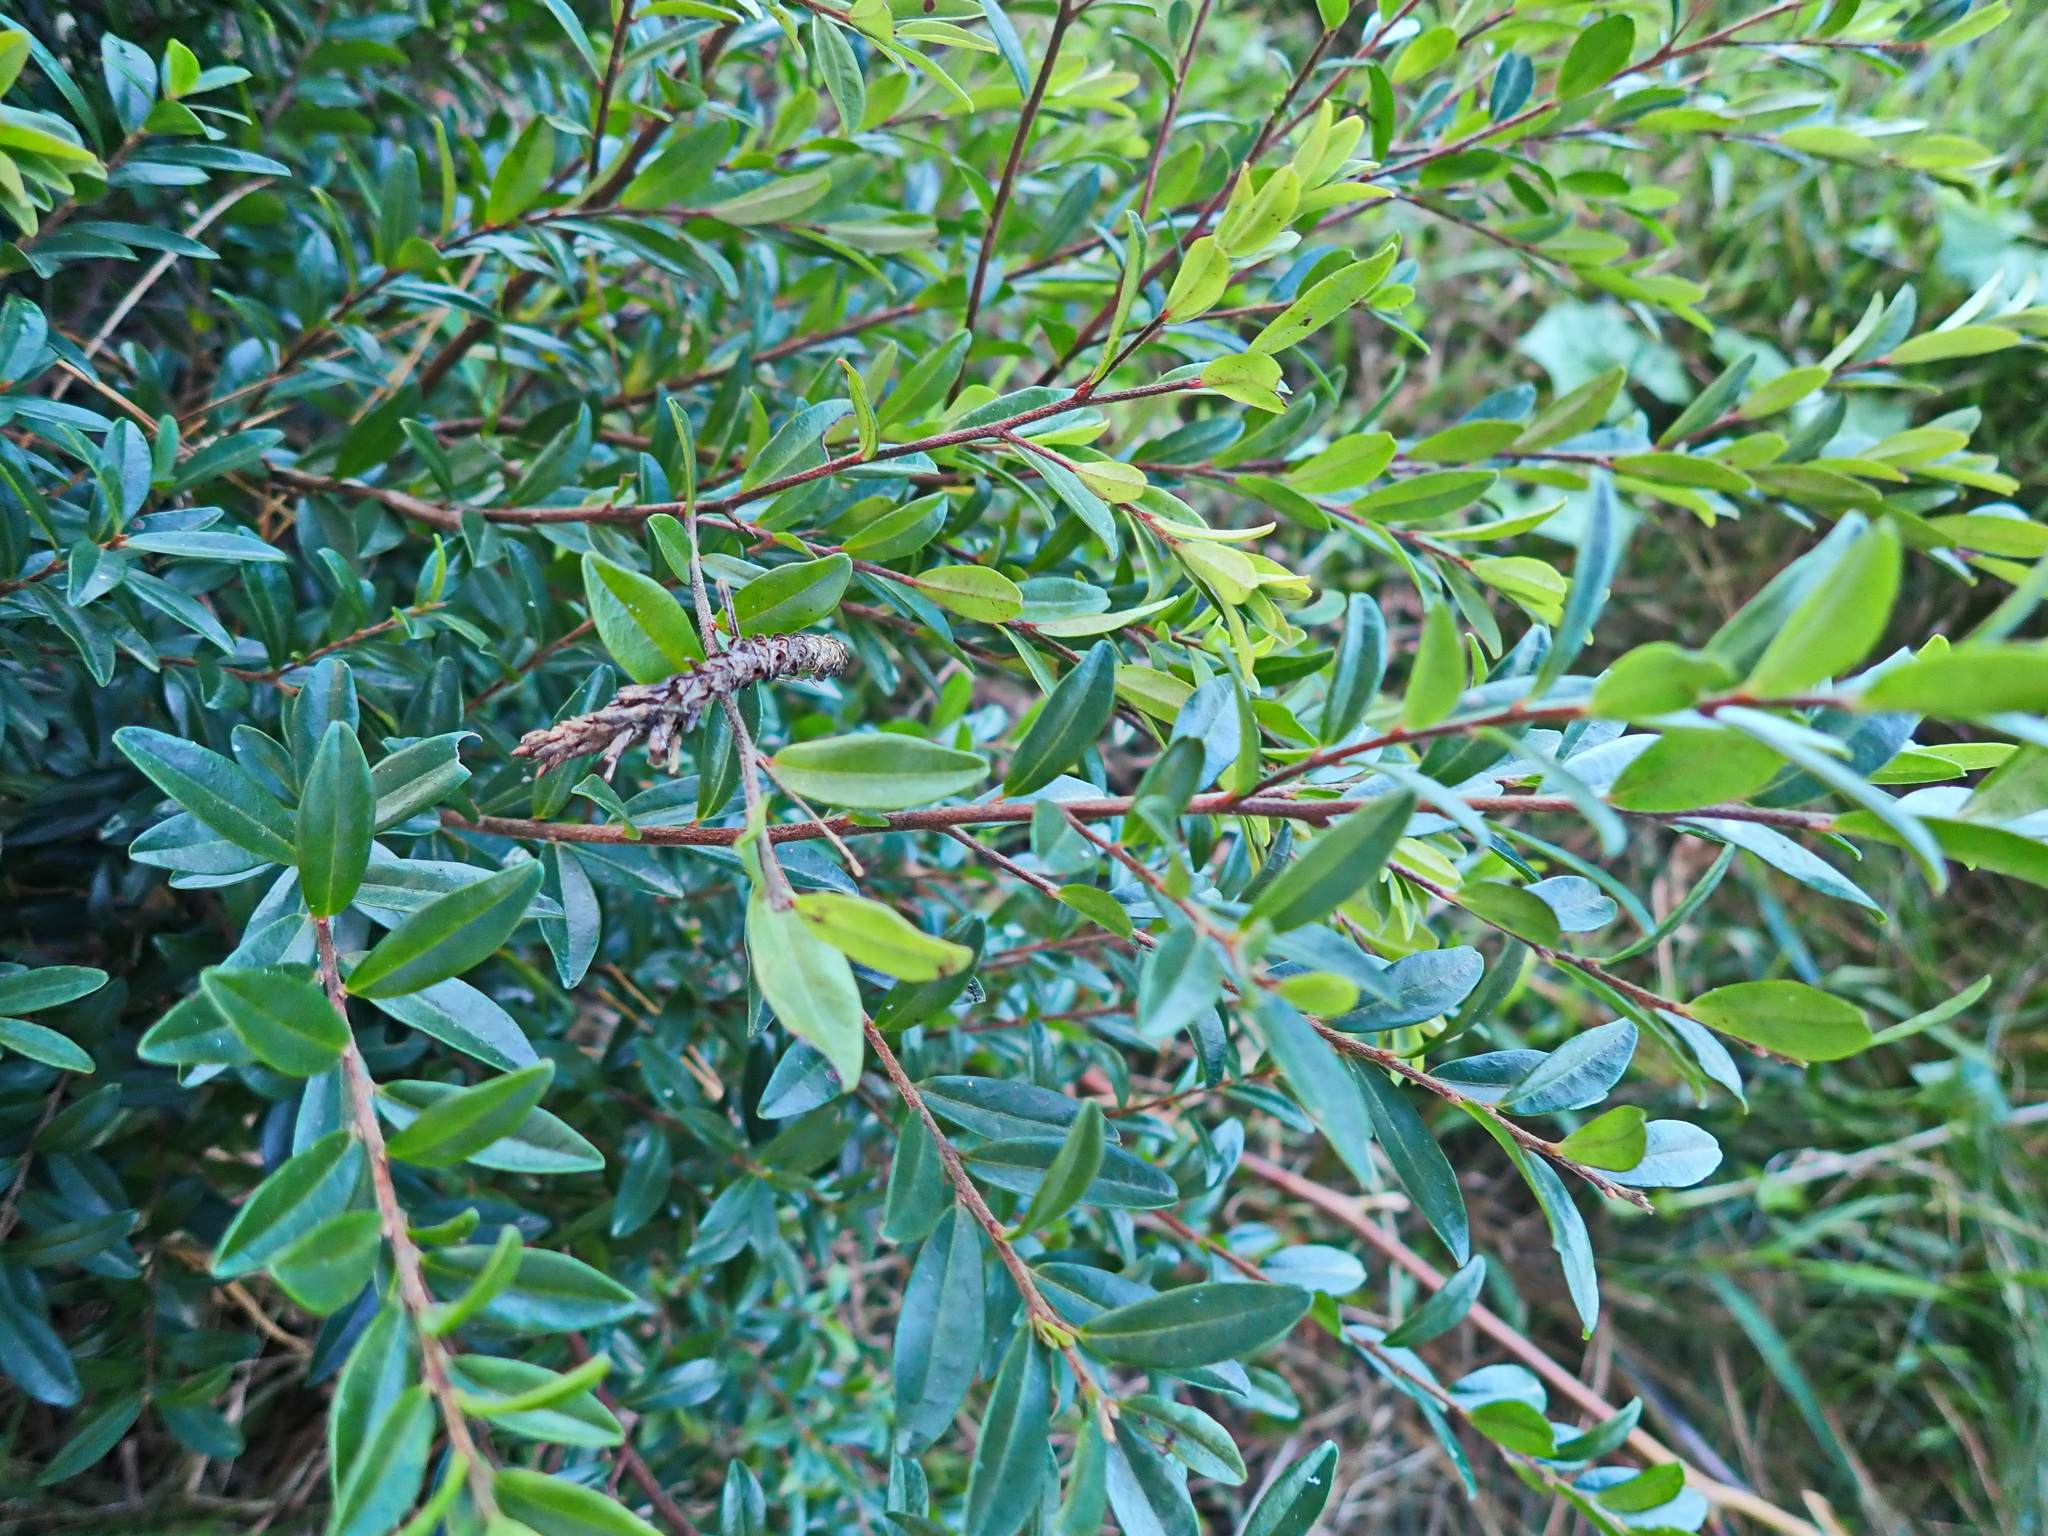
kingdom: Plantae
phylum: Tracheophyta
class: Magnoliopsida
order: Ericales
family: Primulaceae
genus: Myrsine
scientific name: Myrsine africana
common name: African-boxwood
